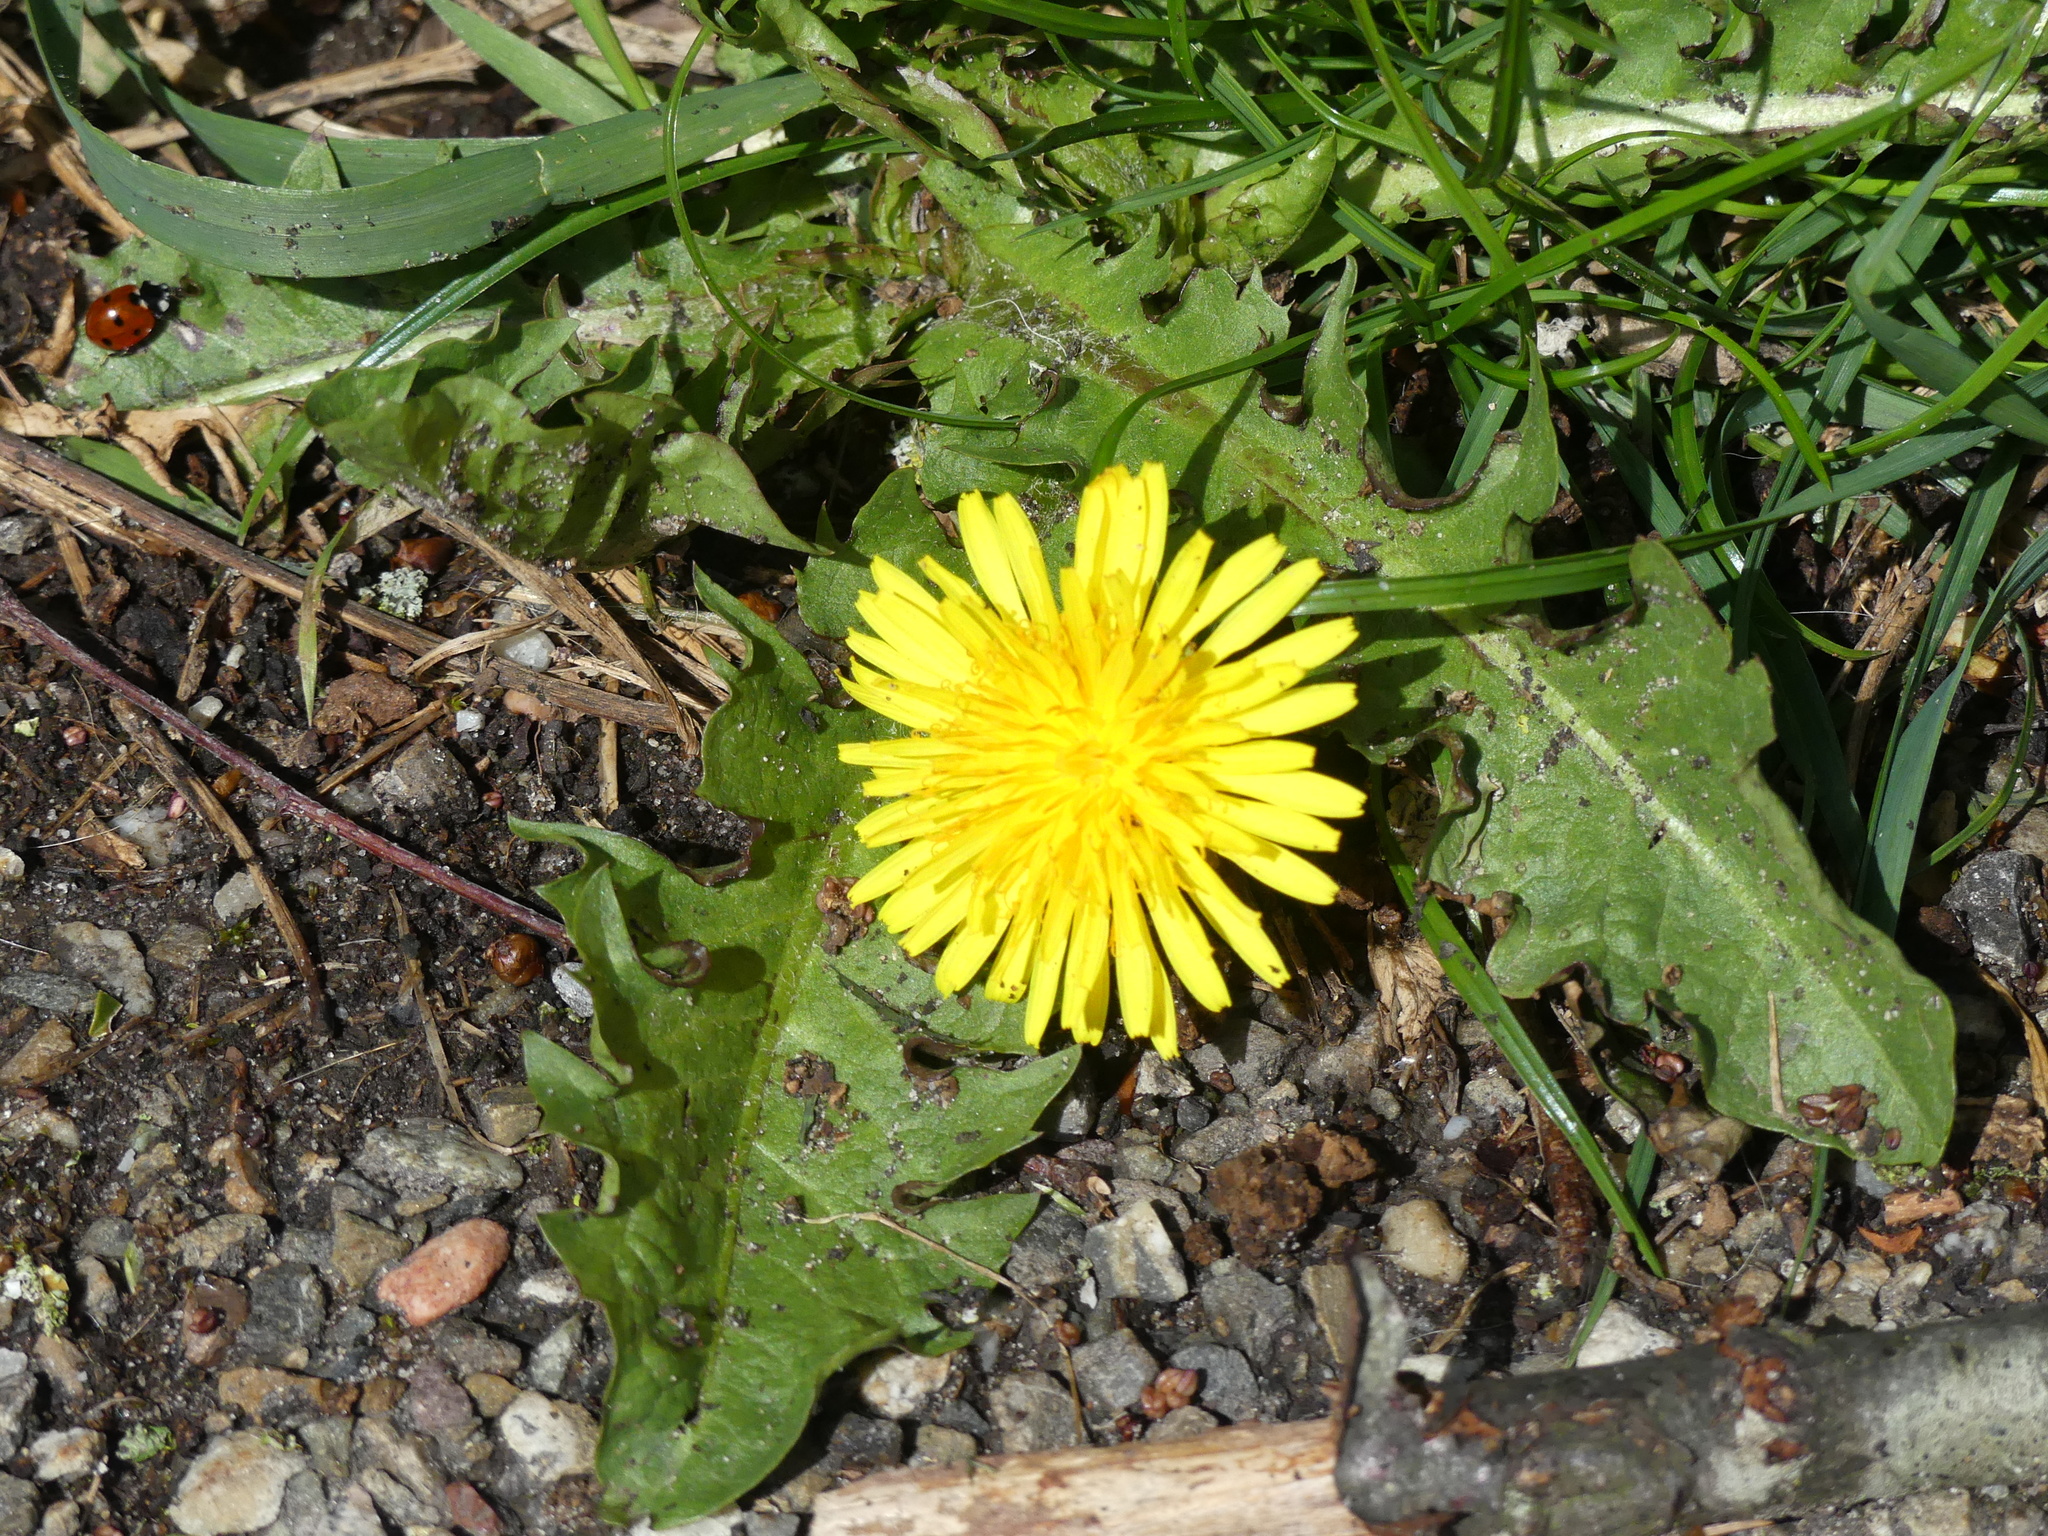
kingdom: Animalia
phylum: Arthropoda
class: Insecta
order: Coleoptera
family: Coccinellidae
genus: Coccinella
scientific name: Coccinella septempunctata
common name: Sevenspotted lady beetle
